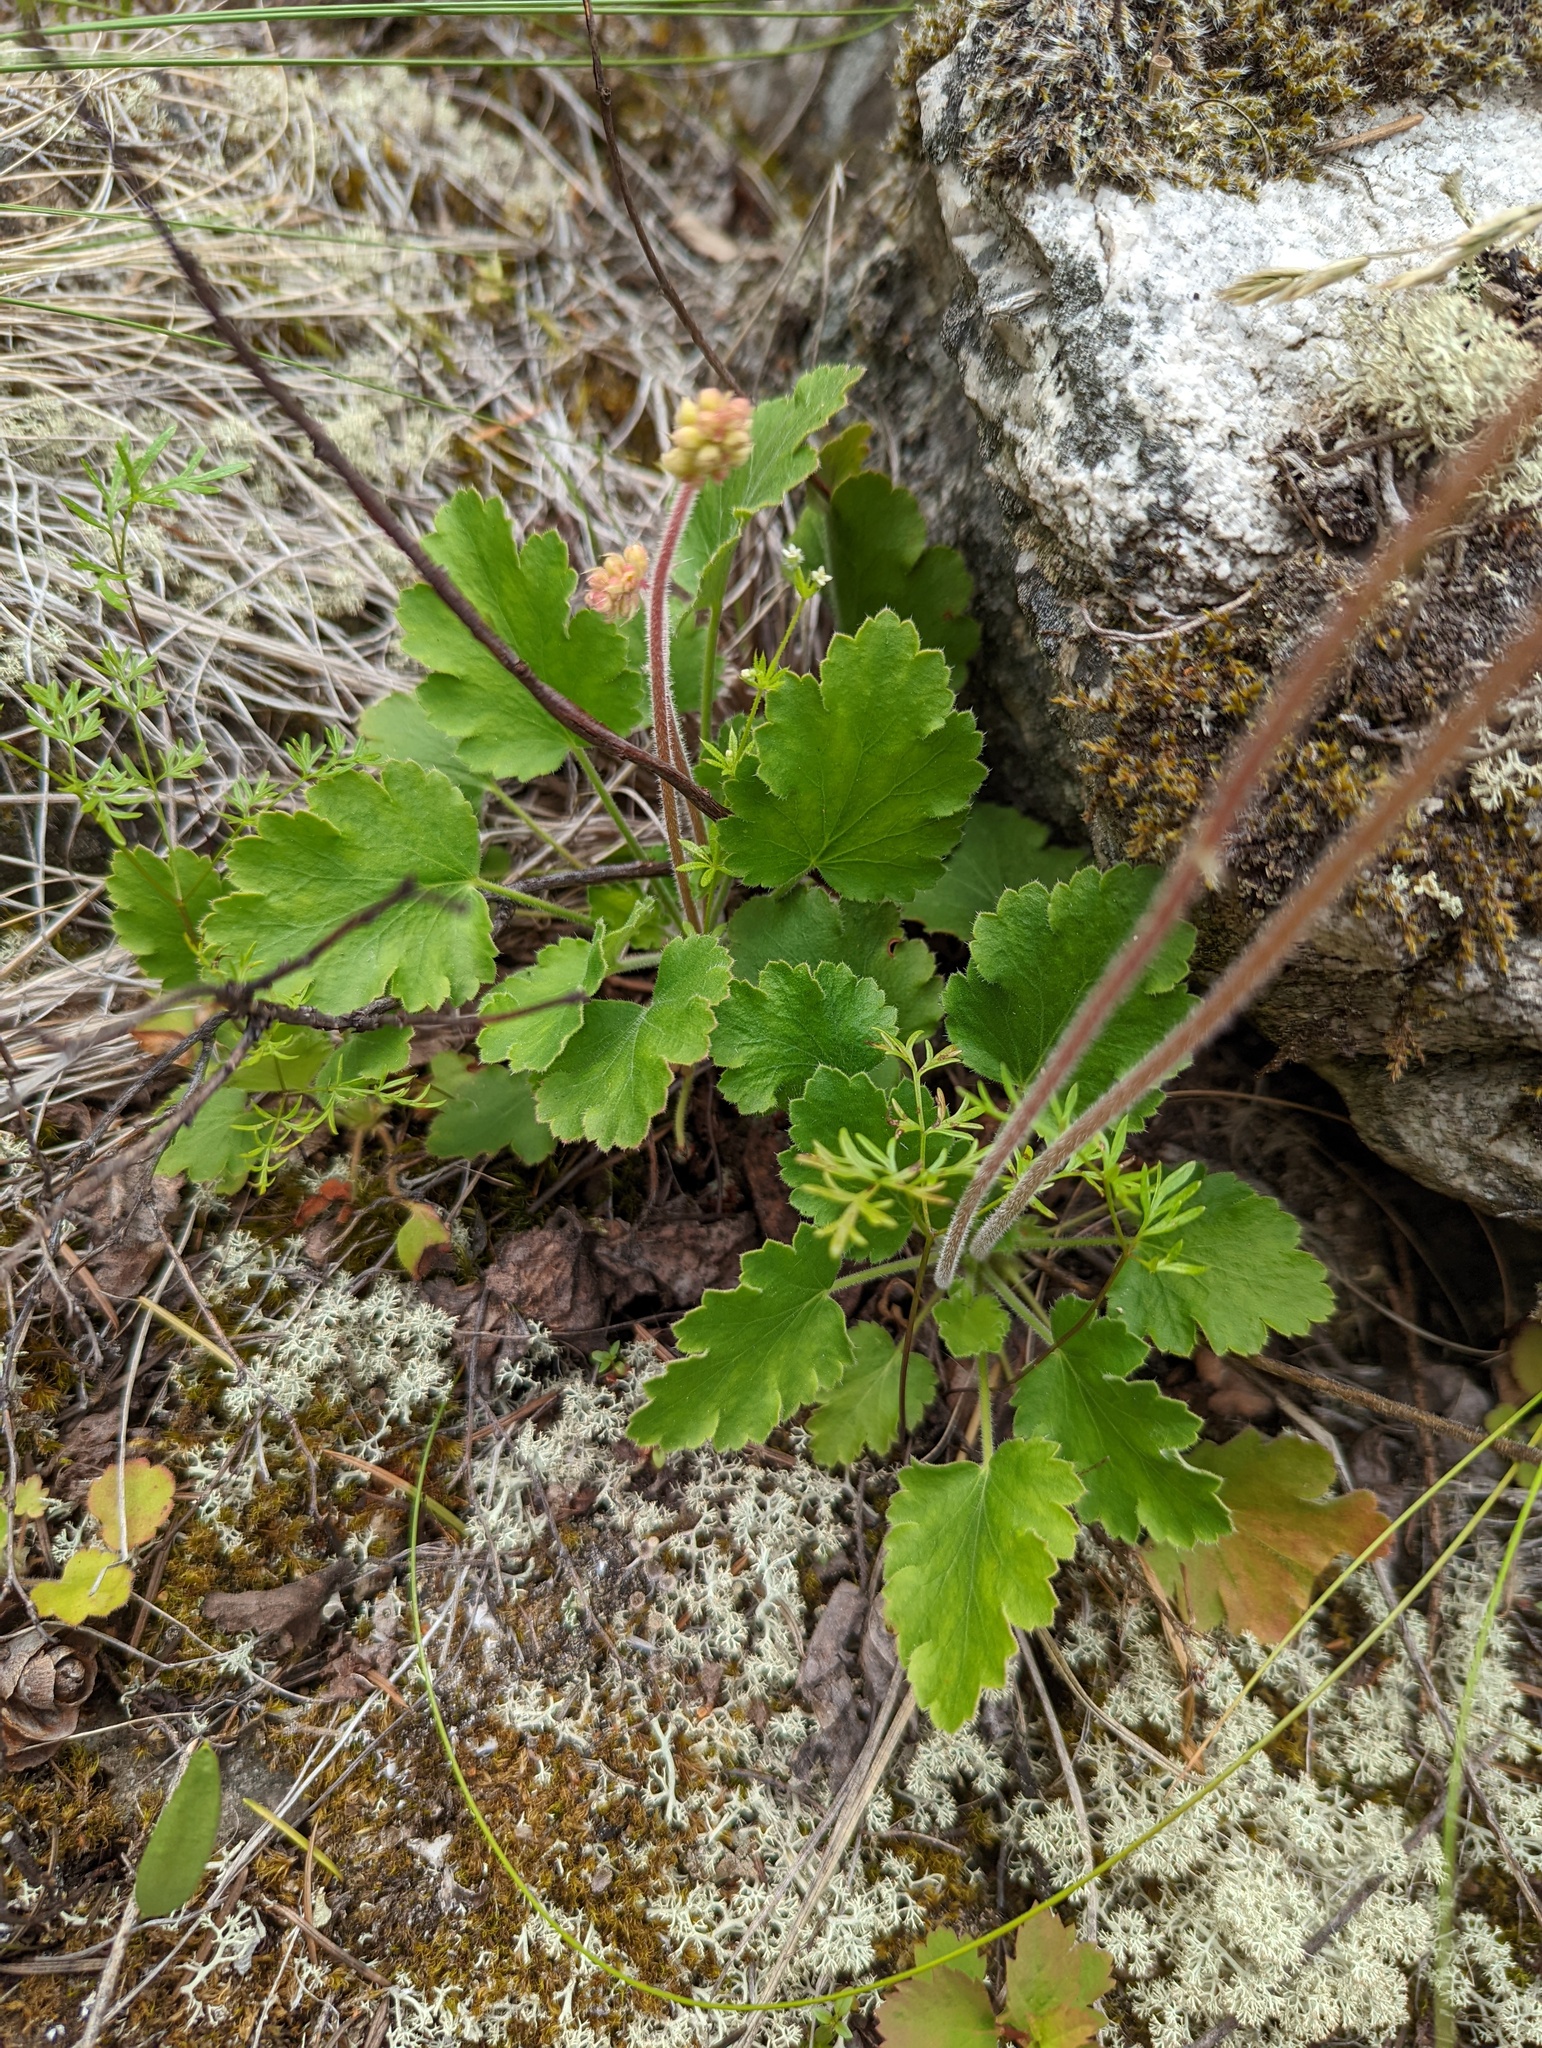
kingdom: Plantae
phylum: Tracheophyta
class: Magnoliopsida
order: Saxifragales
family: Saxifragaceae
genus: Heuchera
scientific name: Heuchera cylindrica
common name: Mat alumroot
